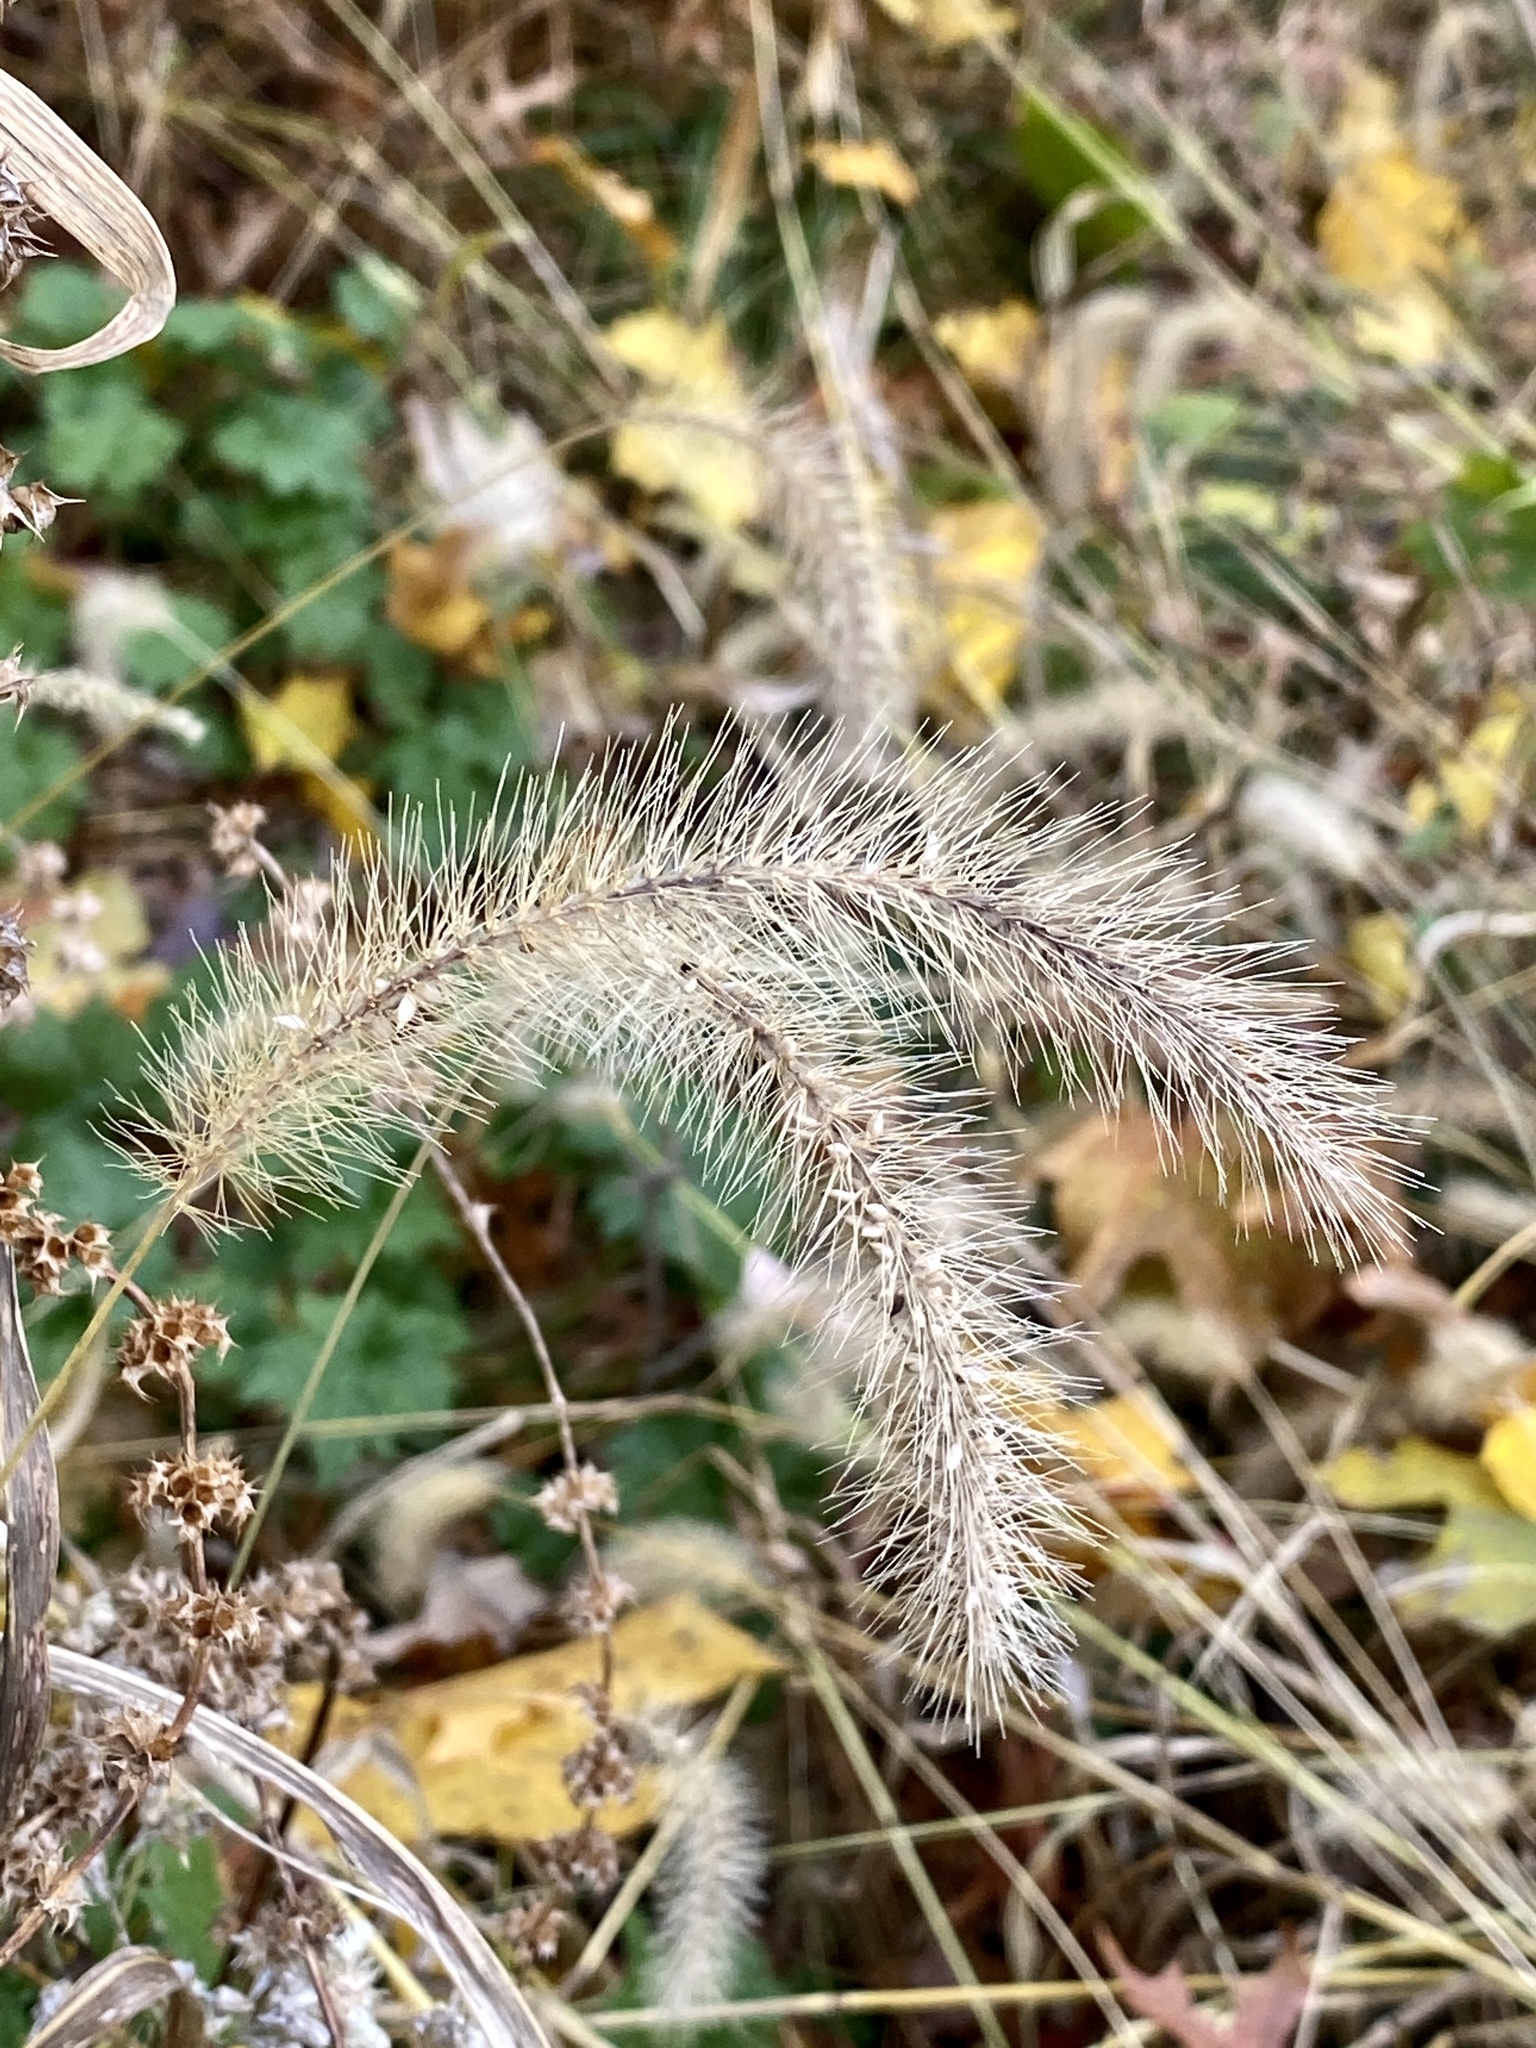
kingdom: Plantae
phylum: Tracheophyta
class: Liliopsida
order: Poales
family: Poaceae
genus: Setaria
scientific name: Setaria faberi
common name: Nodding bristle-grass
